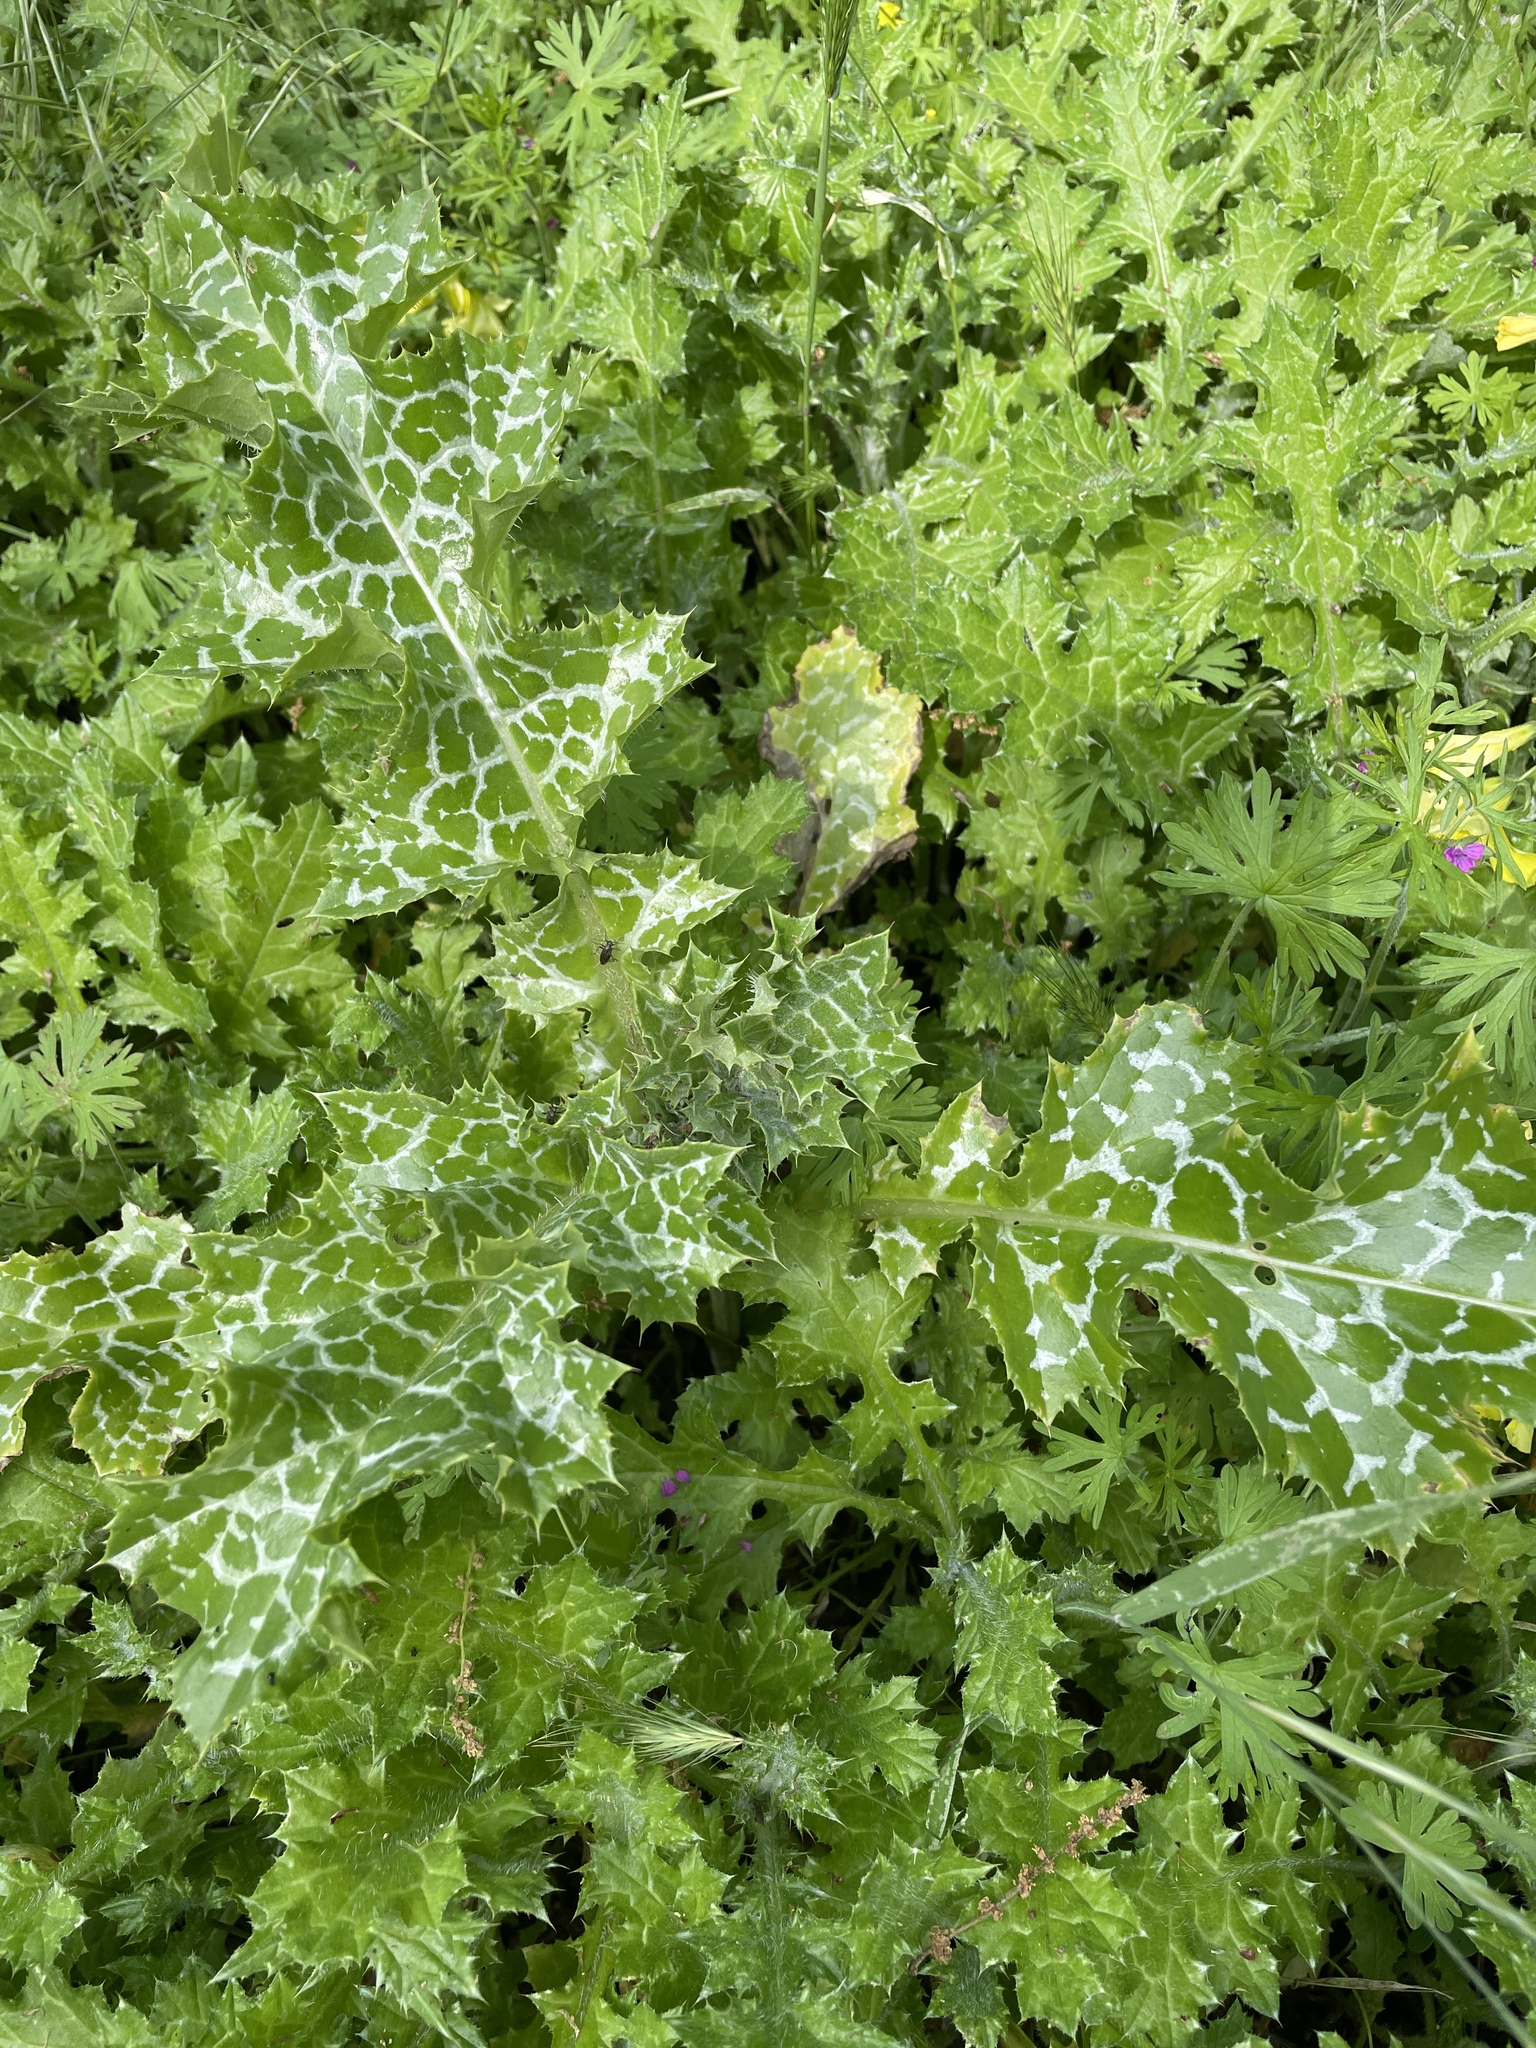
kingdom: Plantae
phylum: Tracheophyta
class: Magnoliopsida
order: Asterales
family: Asteraceae
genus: Silybum
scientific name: Silybum marianum
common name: Milk thistle
